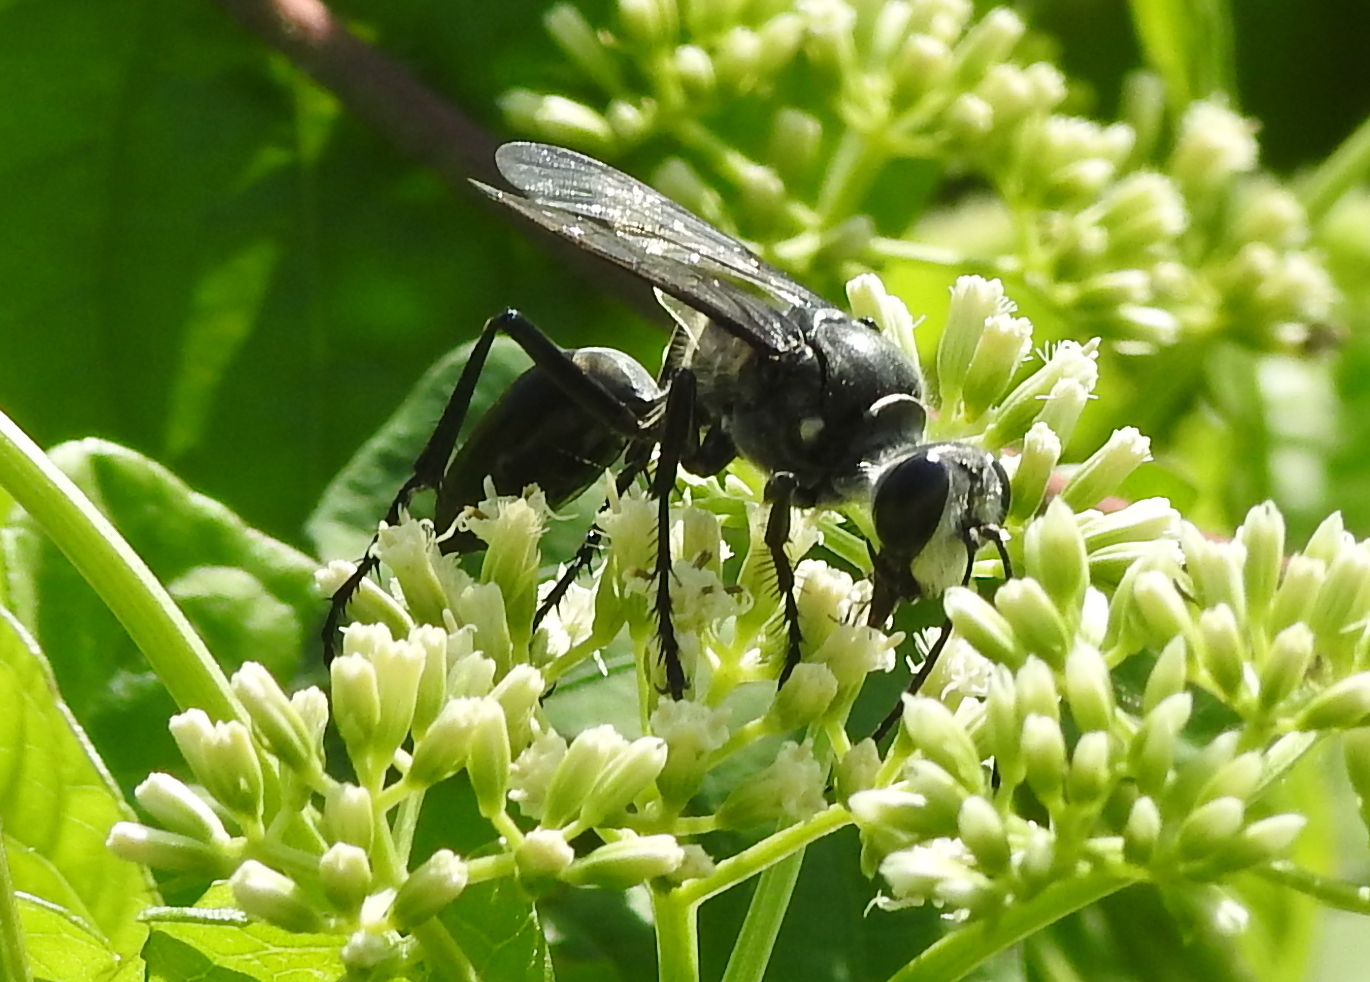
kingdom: Animalia
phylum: Arthropoda
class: Insecta
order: Hymenoptera
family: Sphecidae
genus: Sphex
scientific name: Sphex argentatus
